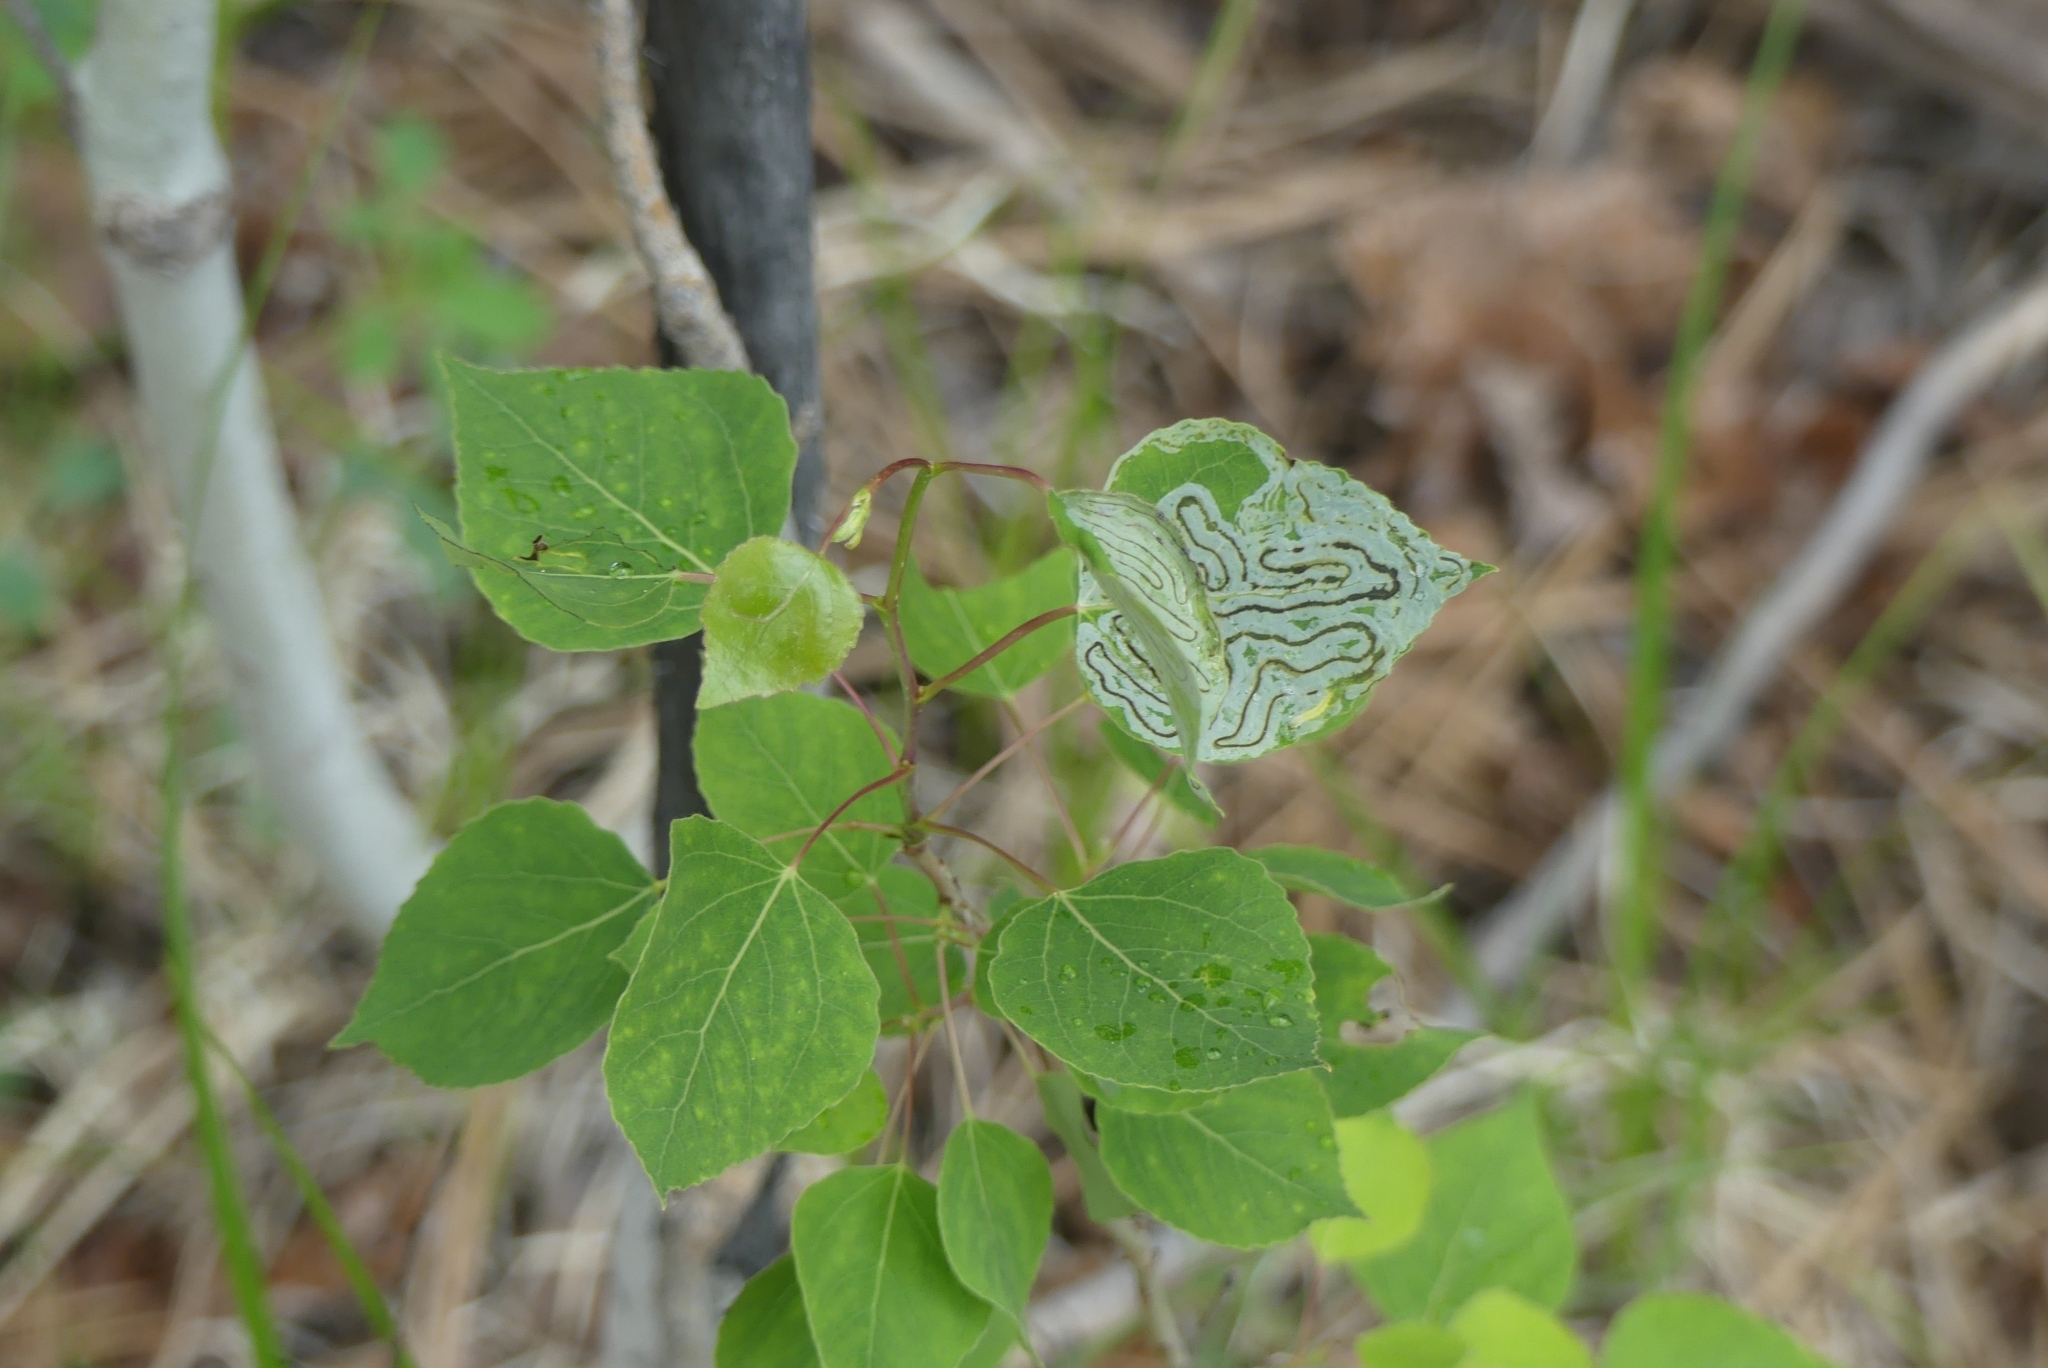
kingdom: Plantae
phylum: Tracheophyta
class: Magnoliopsida
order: Malpighiales
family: Salicaceae
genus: Populus
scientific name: Populus tremuloides
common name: Quaking aspen
